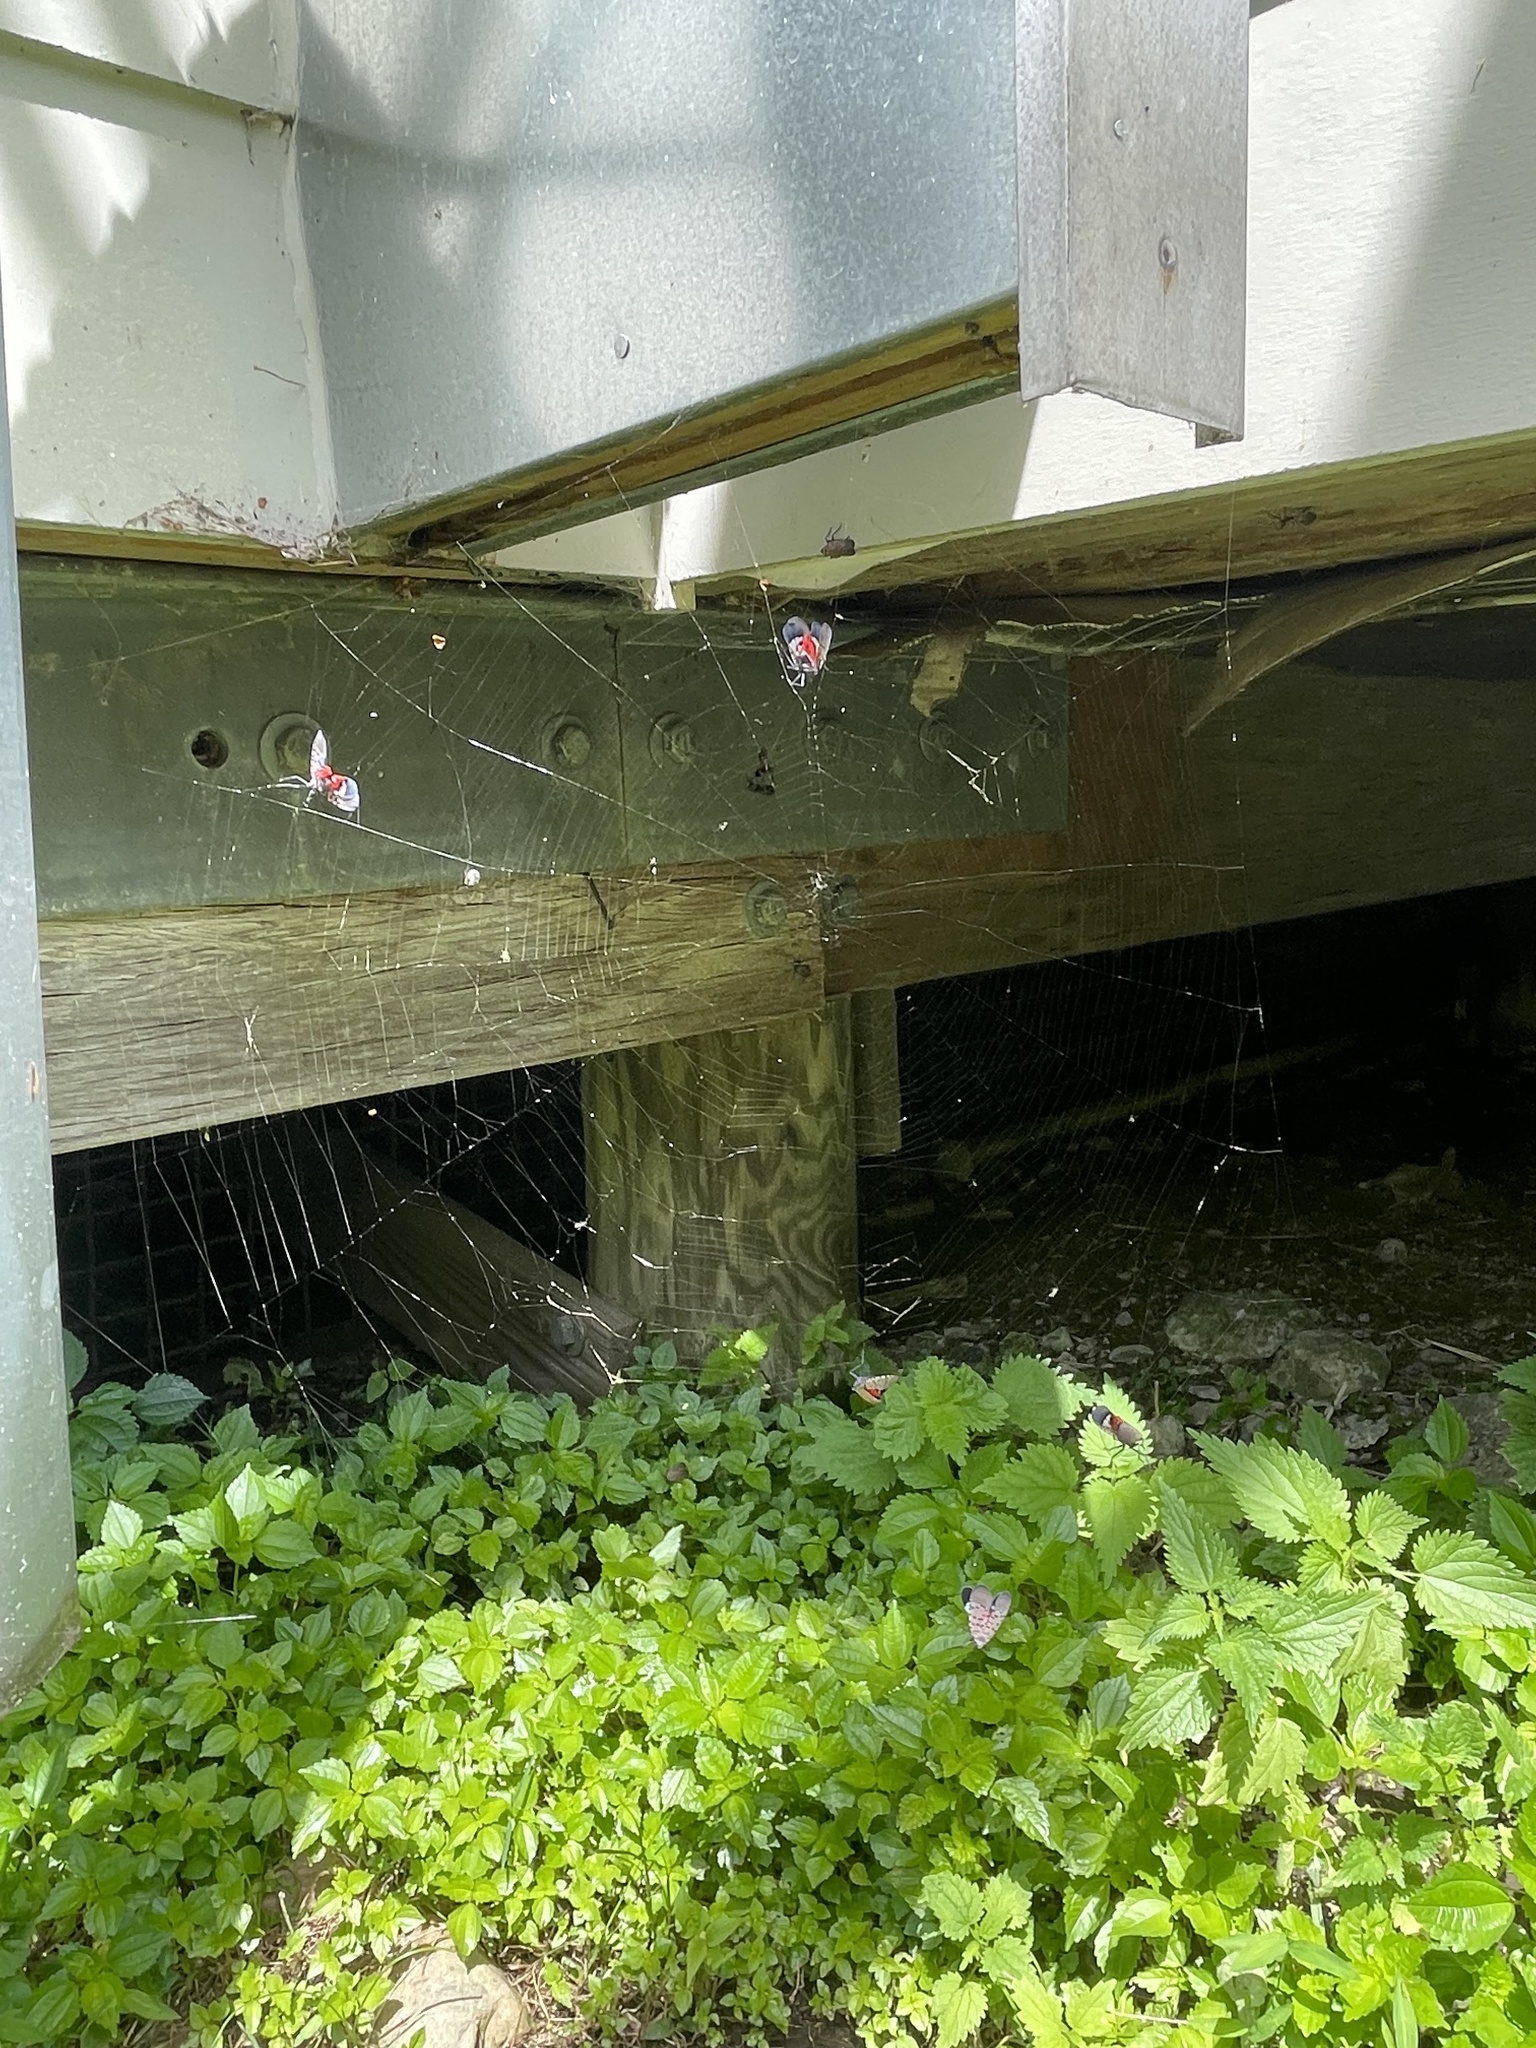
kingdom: Animalia
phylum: Arthropoda
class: Insecta
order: Hemiptera
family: Fulgoridae
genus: Lycorma
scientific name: Lycorma delicatula
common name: Spotted lanternfly
